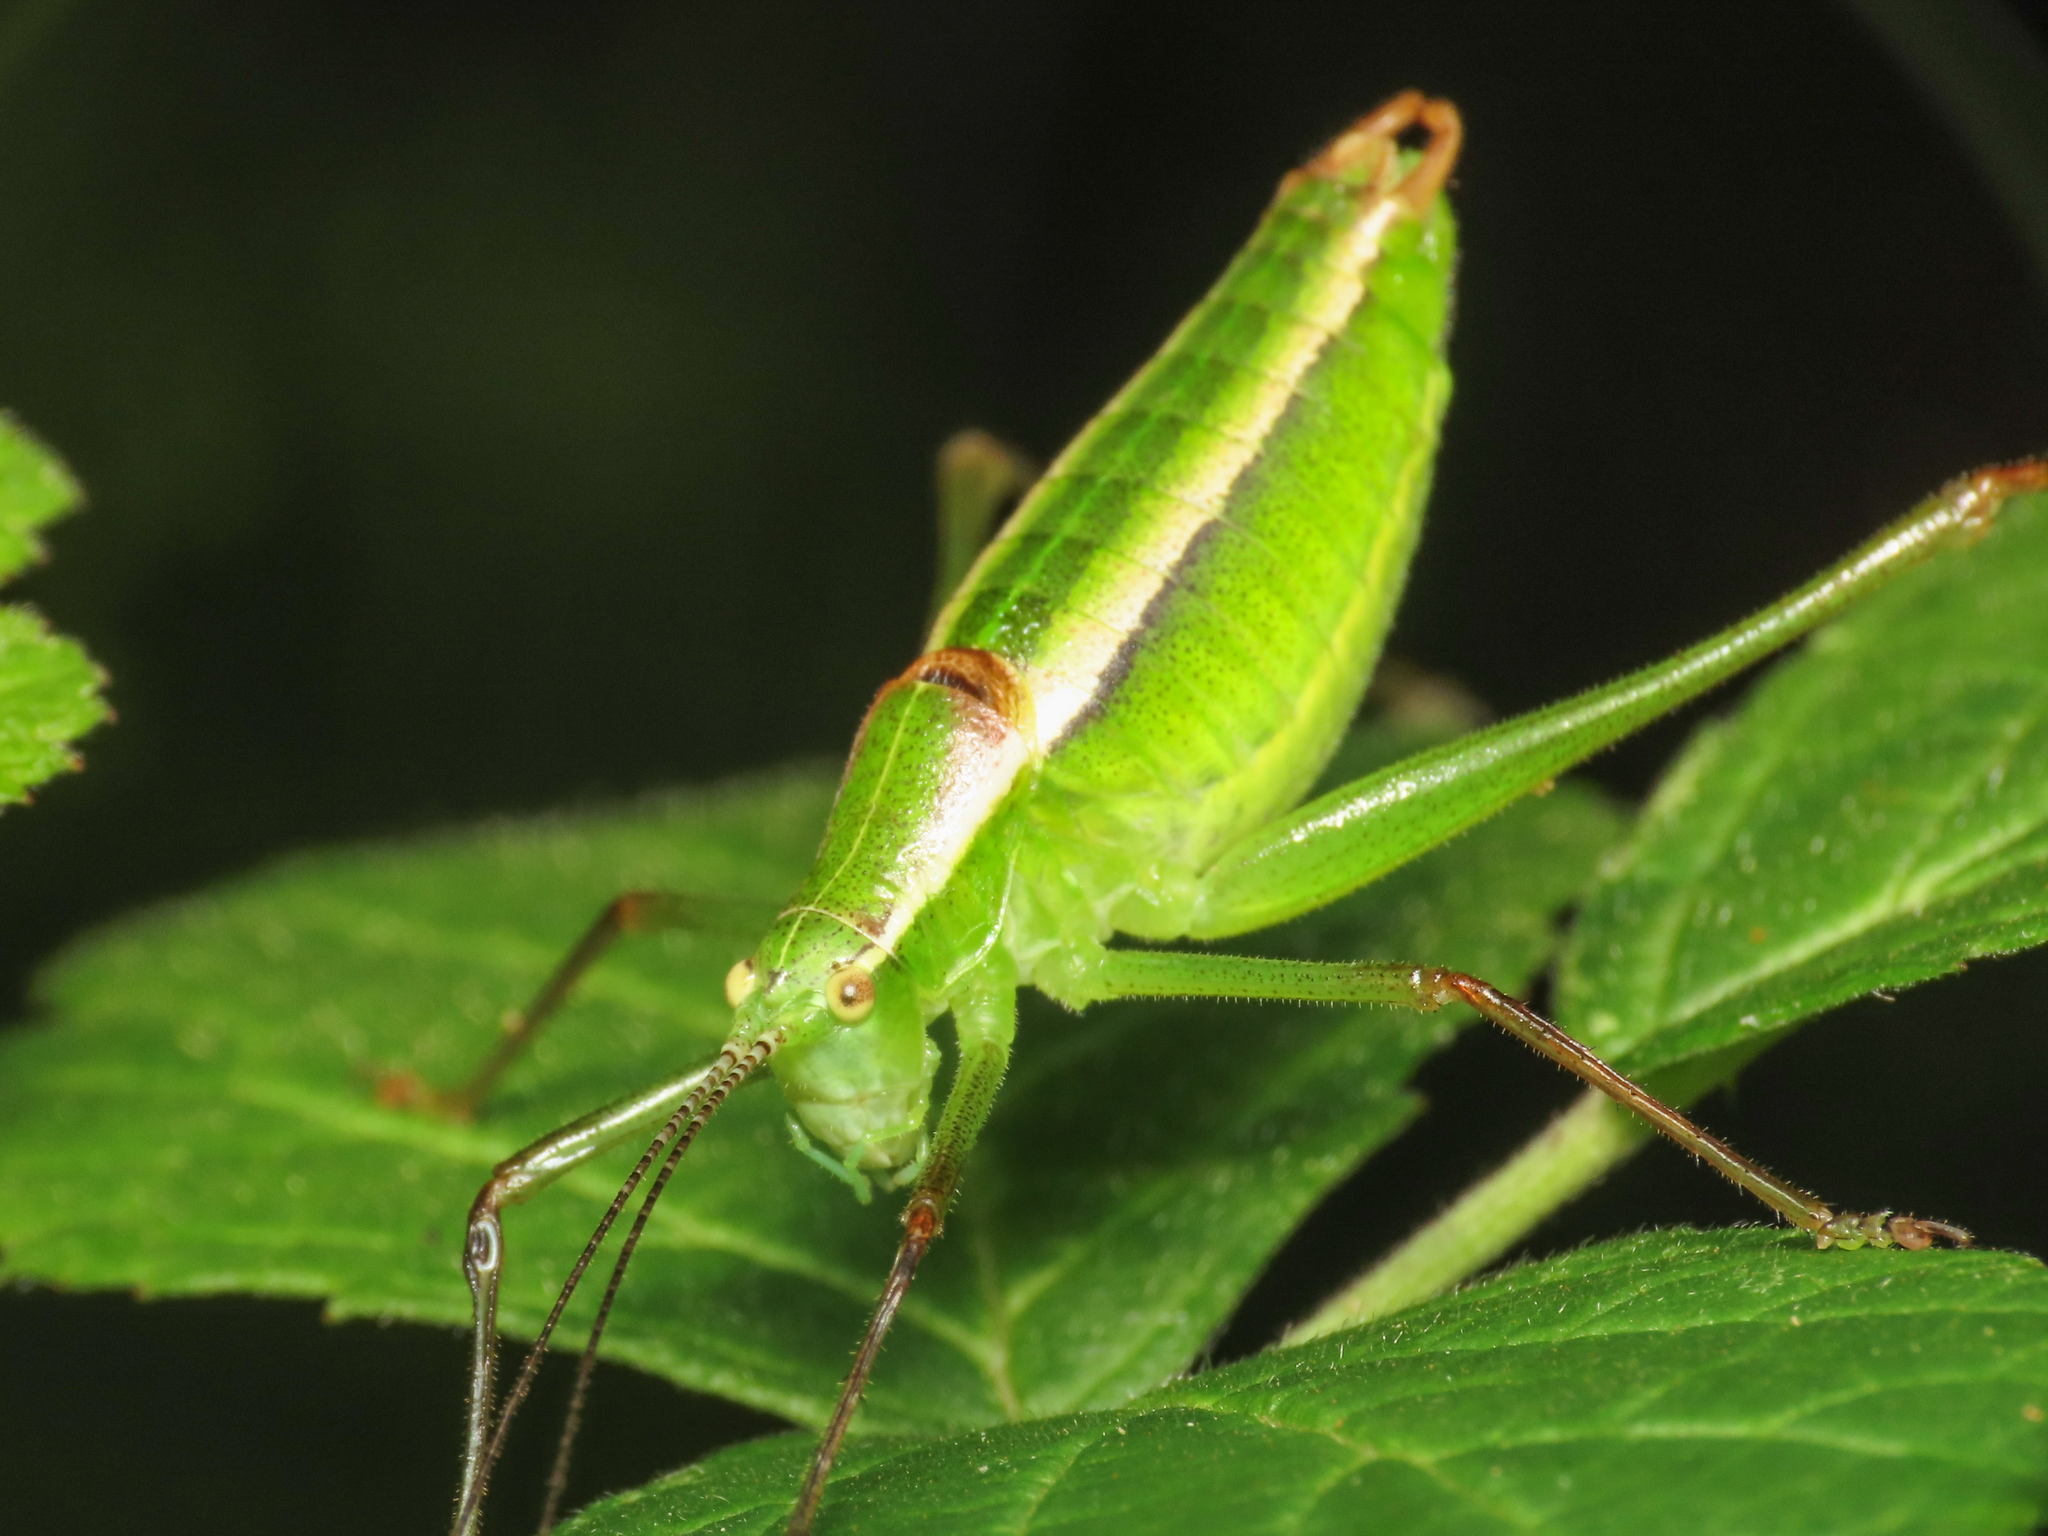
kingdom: Animalia
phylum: Arthropoda
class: Insecta
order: Orthoptera
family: Tettigoniidae
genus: Poecilimon
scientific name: Poecilimon superbus
